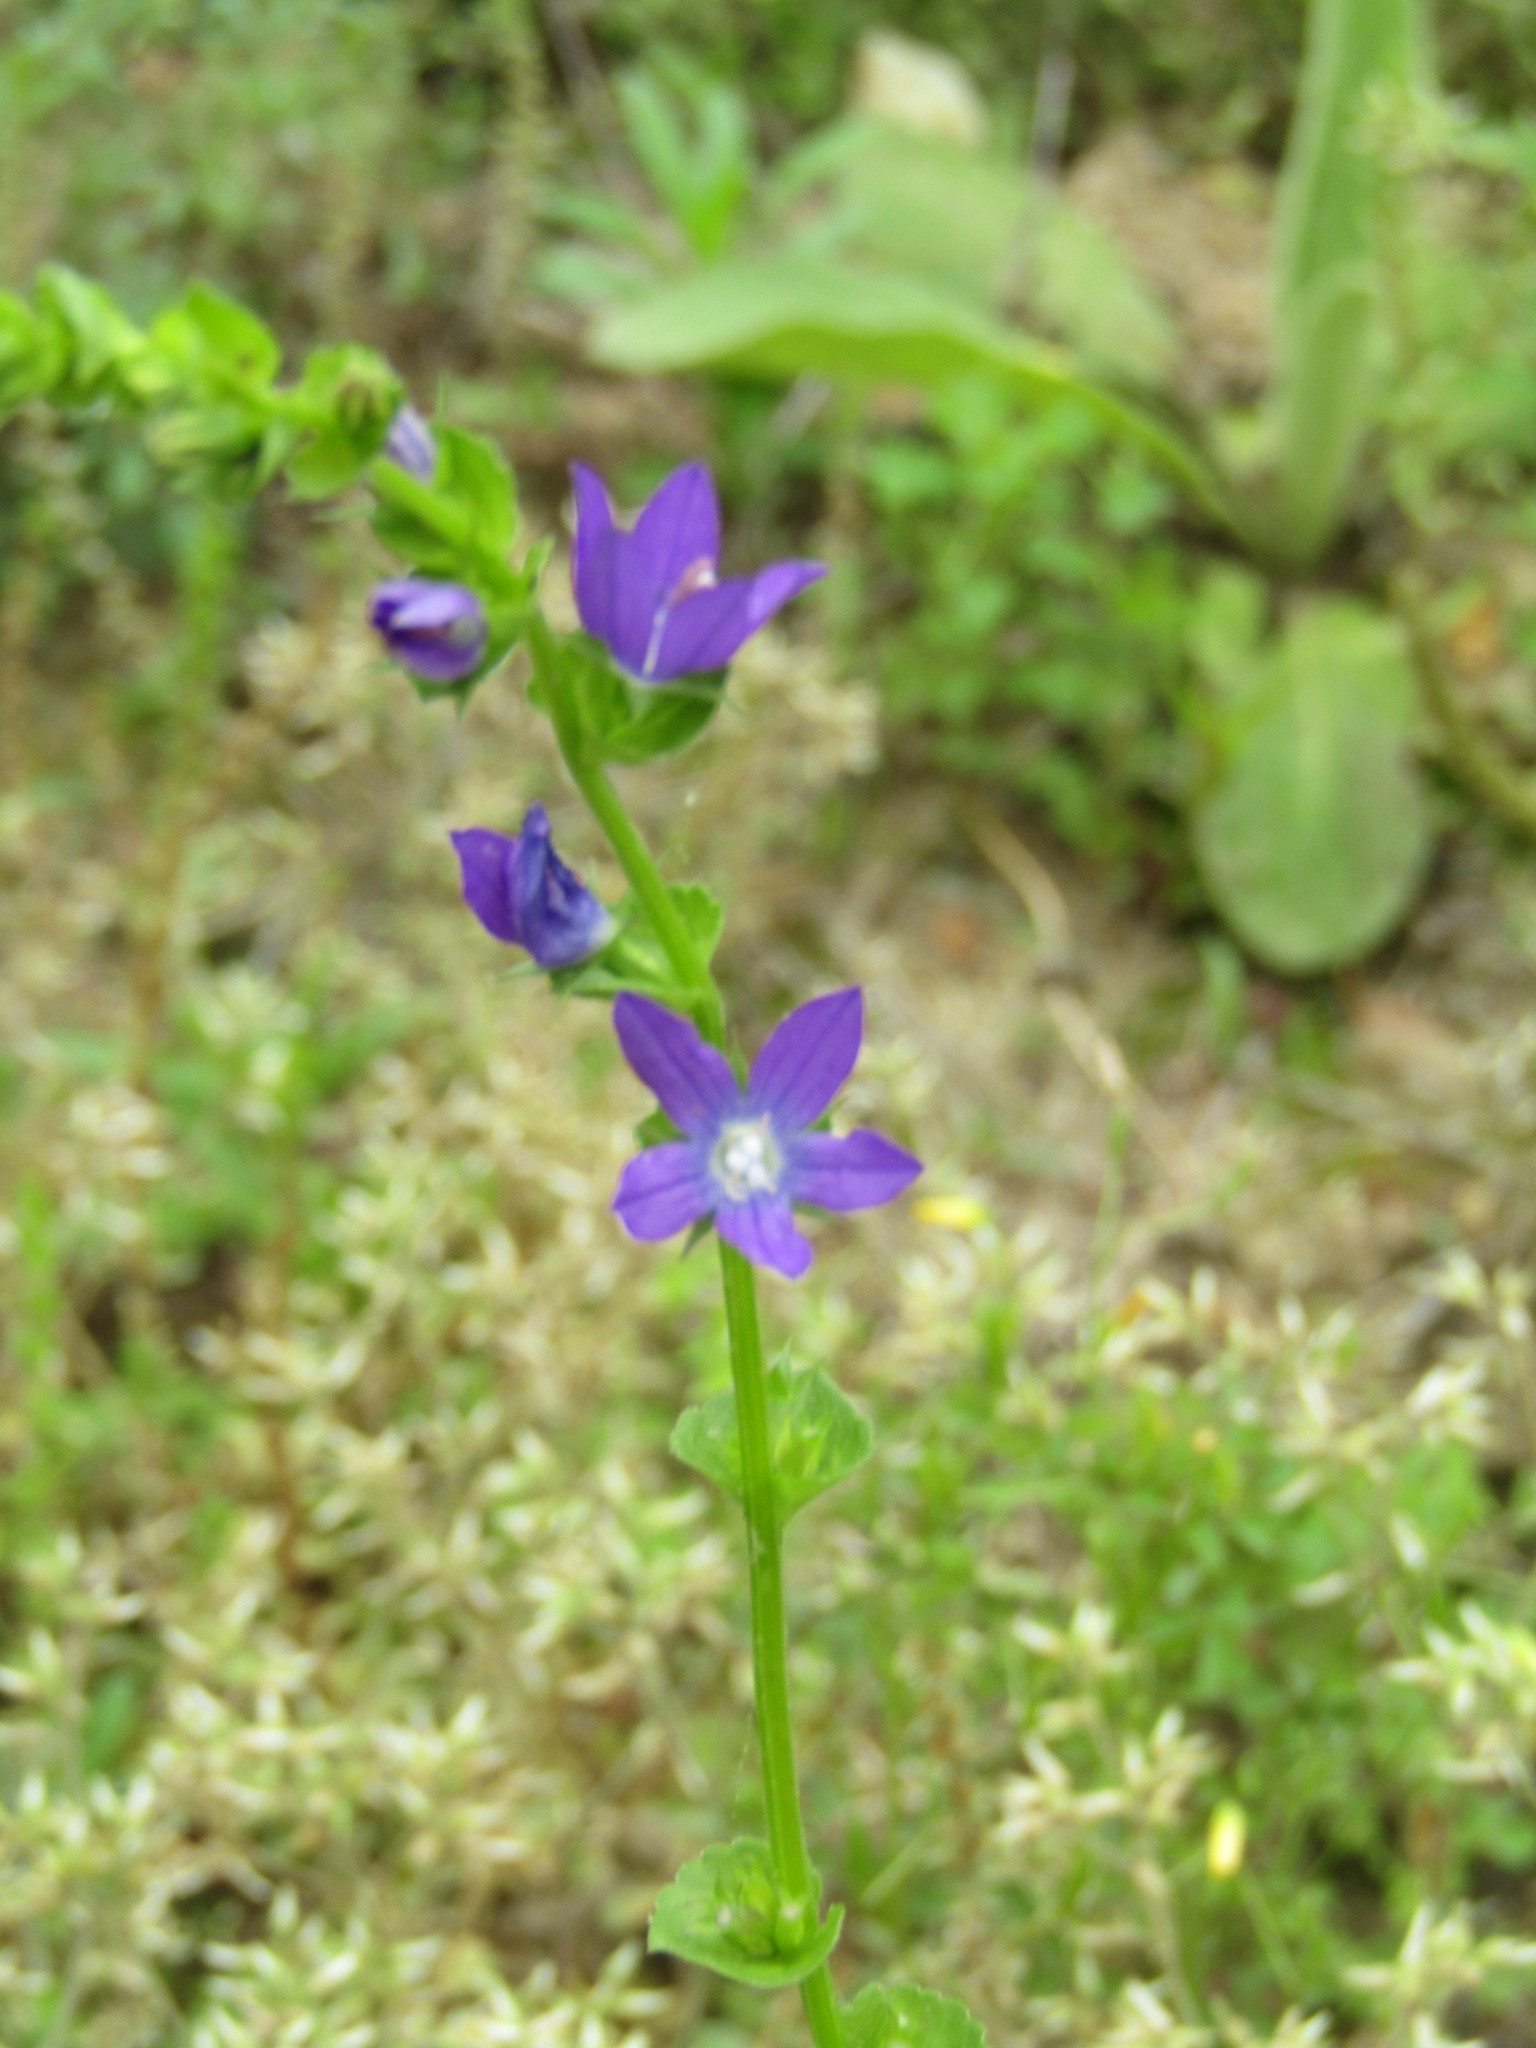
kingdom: Plantae
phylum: Tracheophyta
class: Magnoliopsida
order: Asterales
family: Campanulaceae
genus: Triodanis
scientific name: Triodanis perfoliata
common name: Clasping venus' looking-glass
